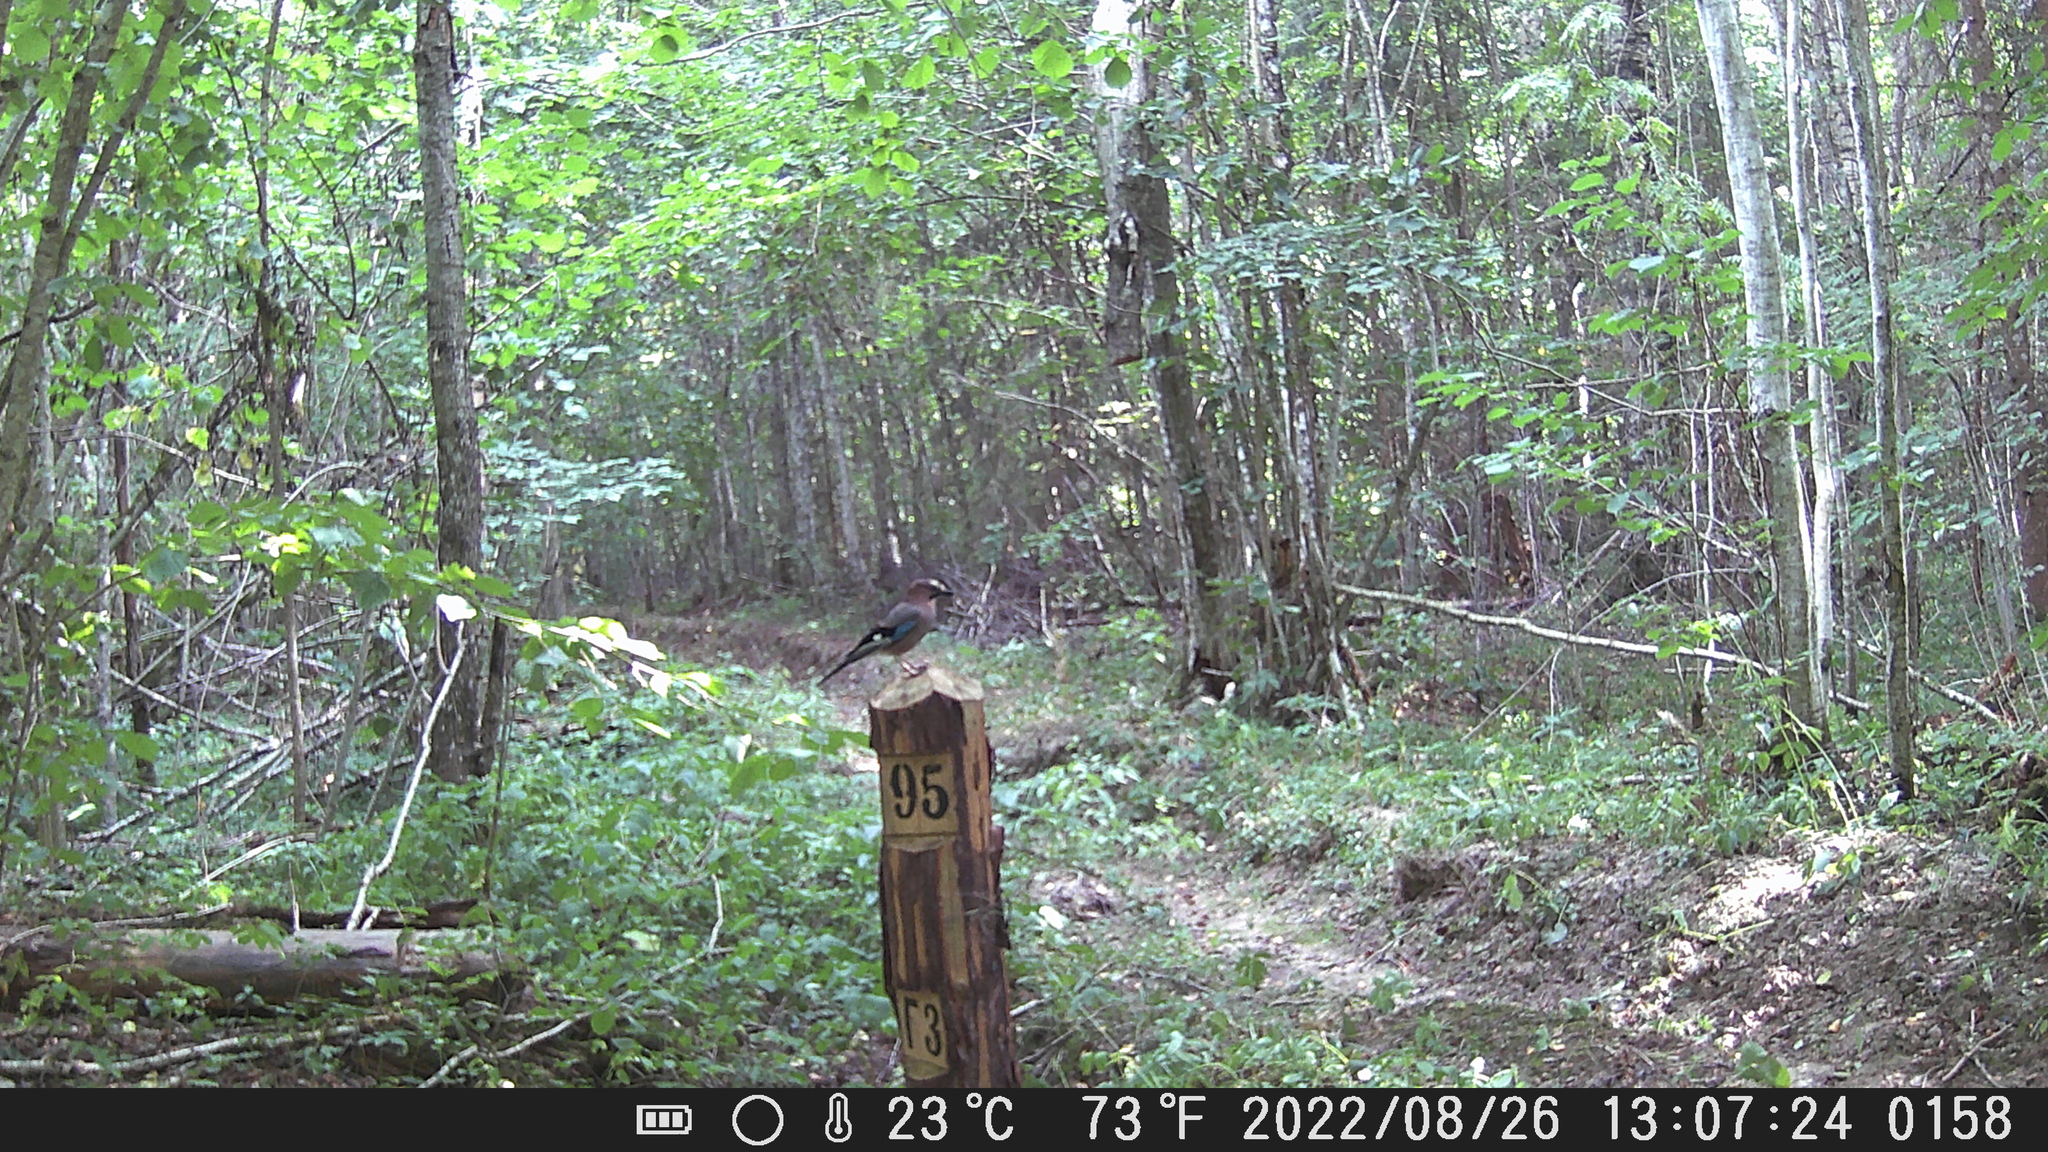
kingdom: Animalia
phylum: Chordata
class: Aves
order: Passeriformes
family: Corvidae
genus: Garrulus
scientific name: Garrulus glandarius
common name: Eurasian jay
